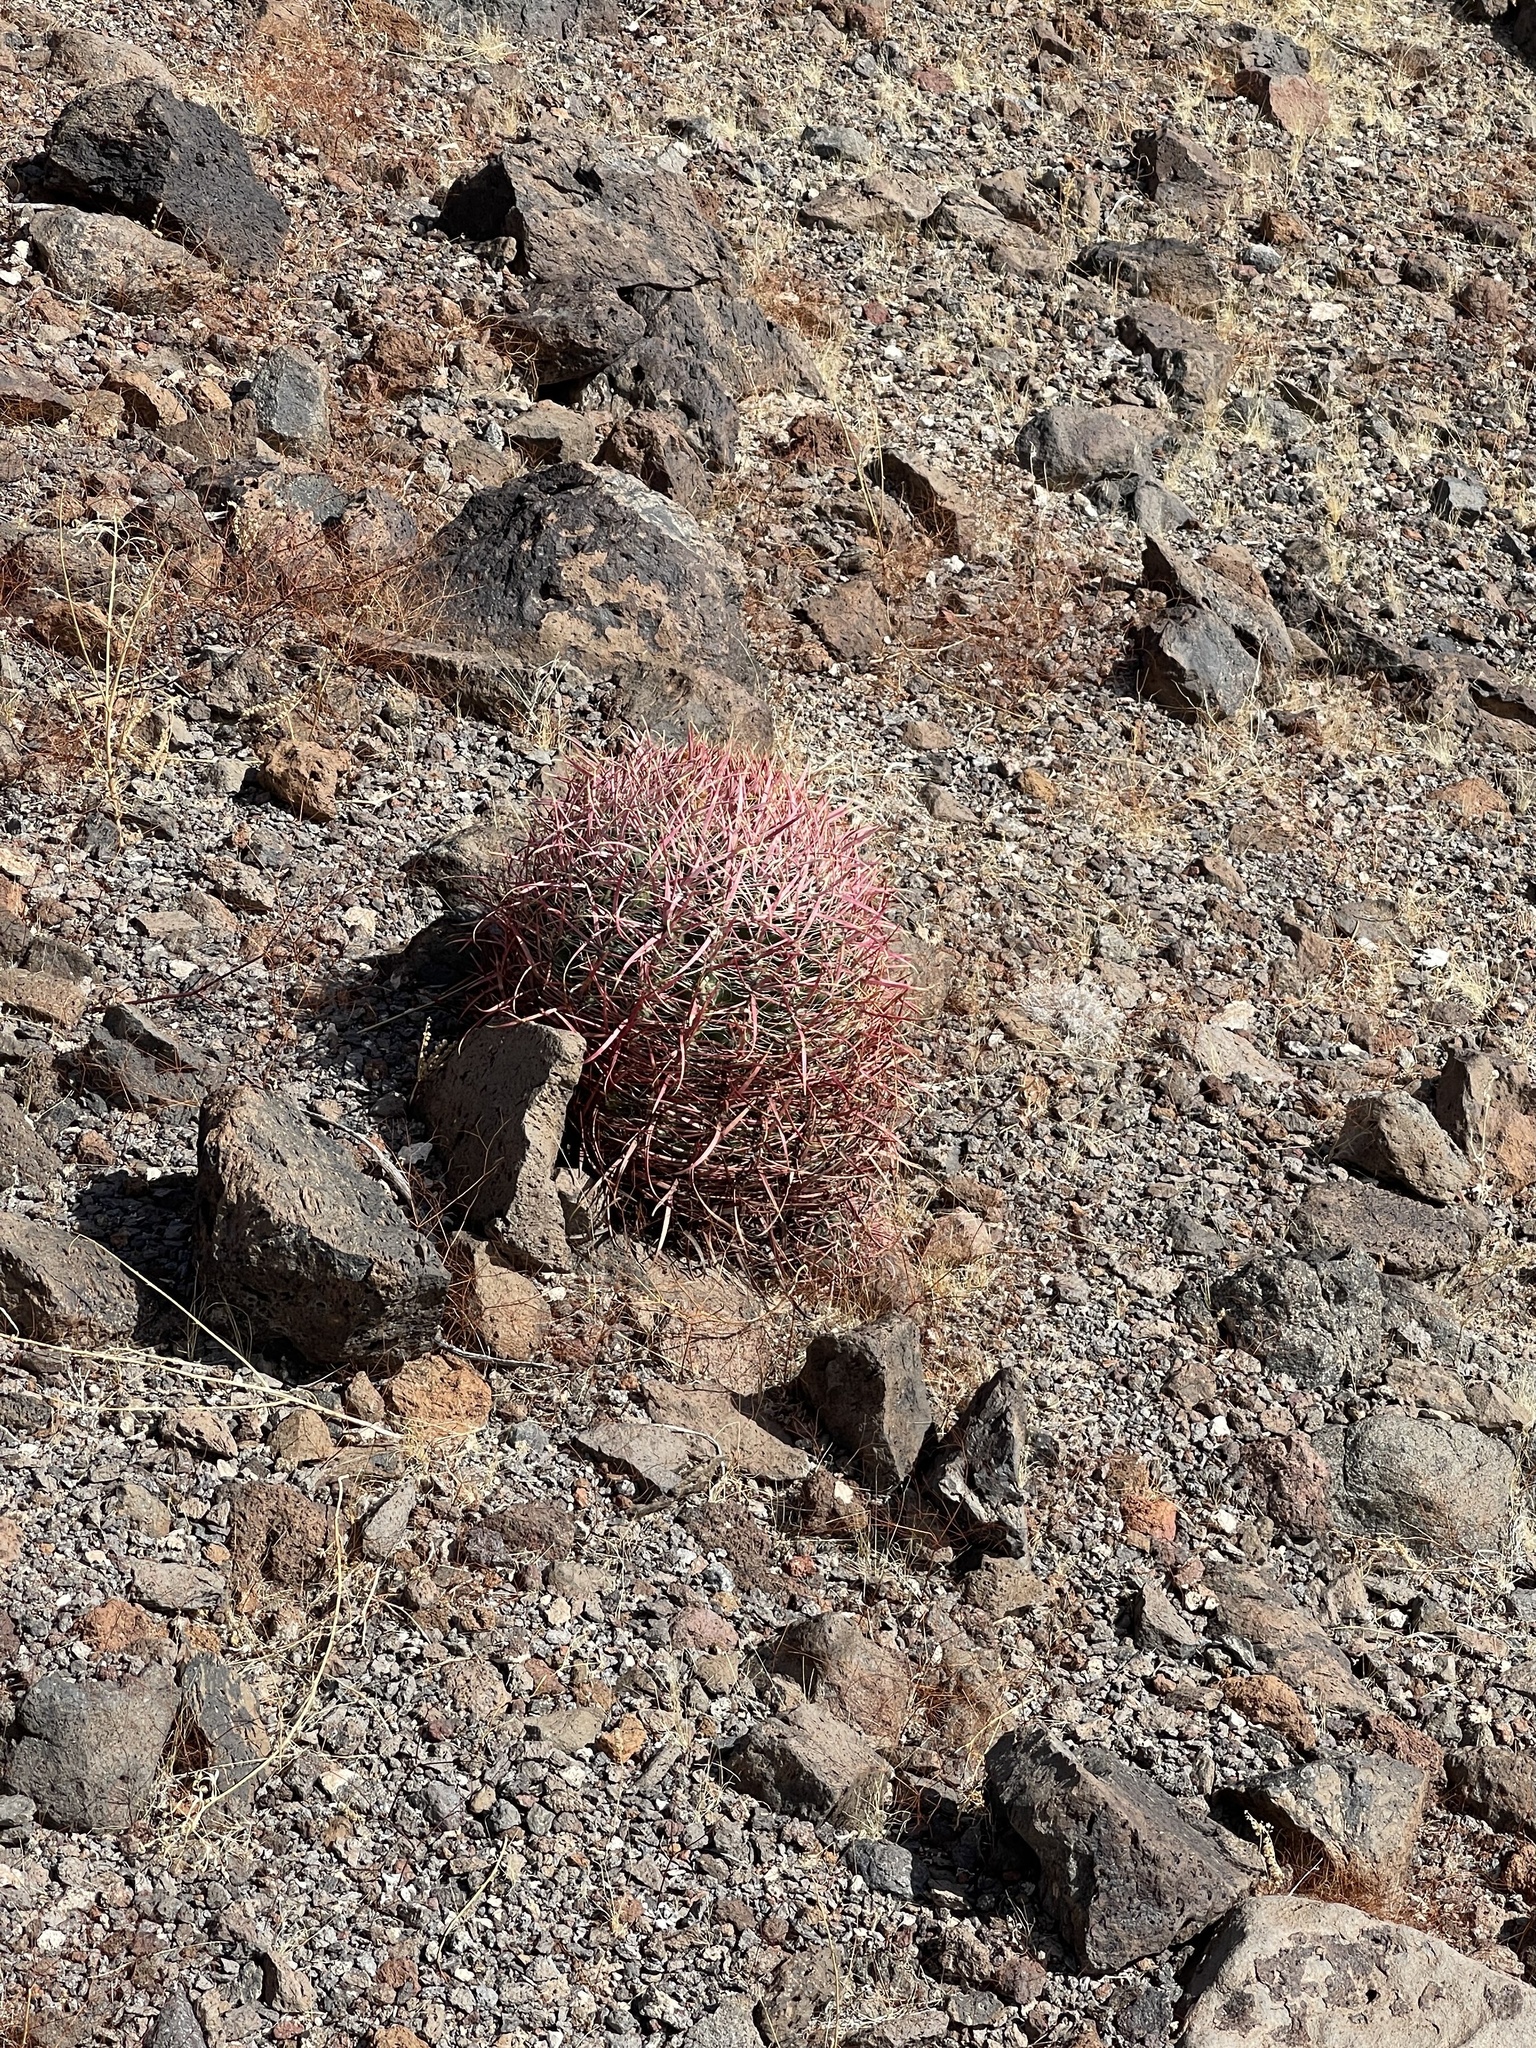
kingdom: Plantae
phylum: Tracheophyta
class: Magnoliopsida
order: Caryophyllales
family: Cactaceae
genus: Ferocactus
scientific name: Ferocactus cylindraceus
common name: California barrel cactus
